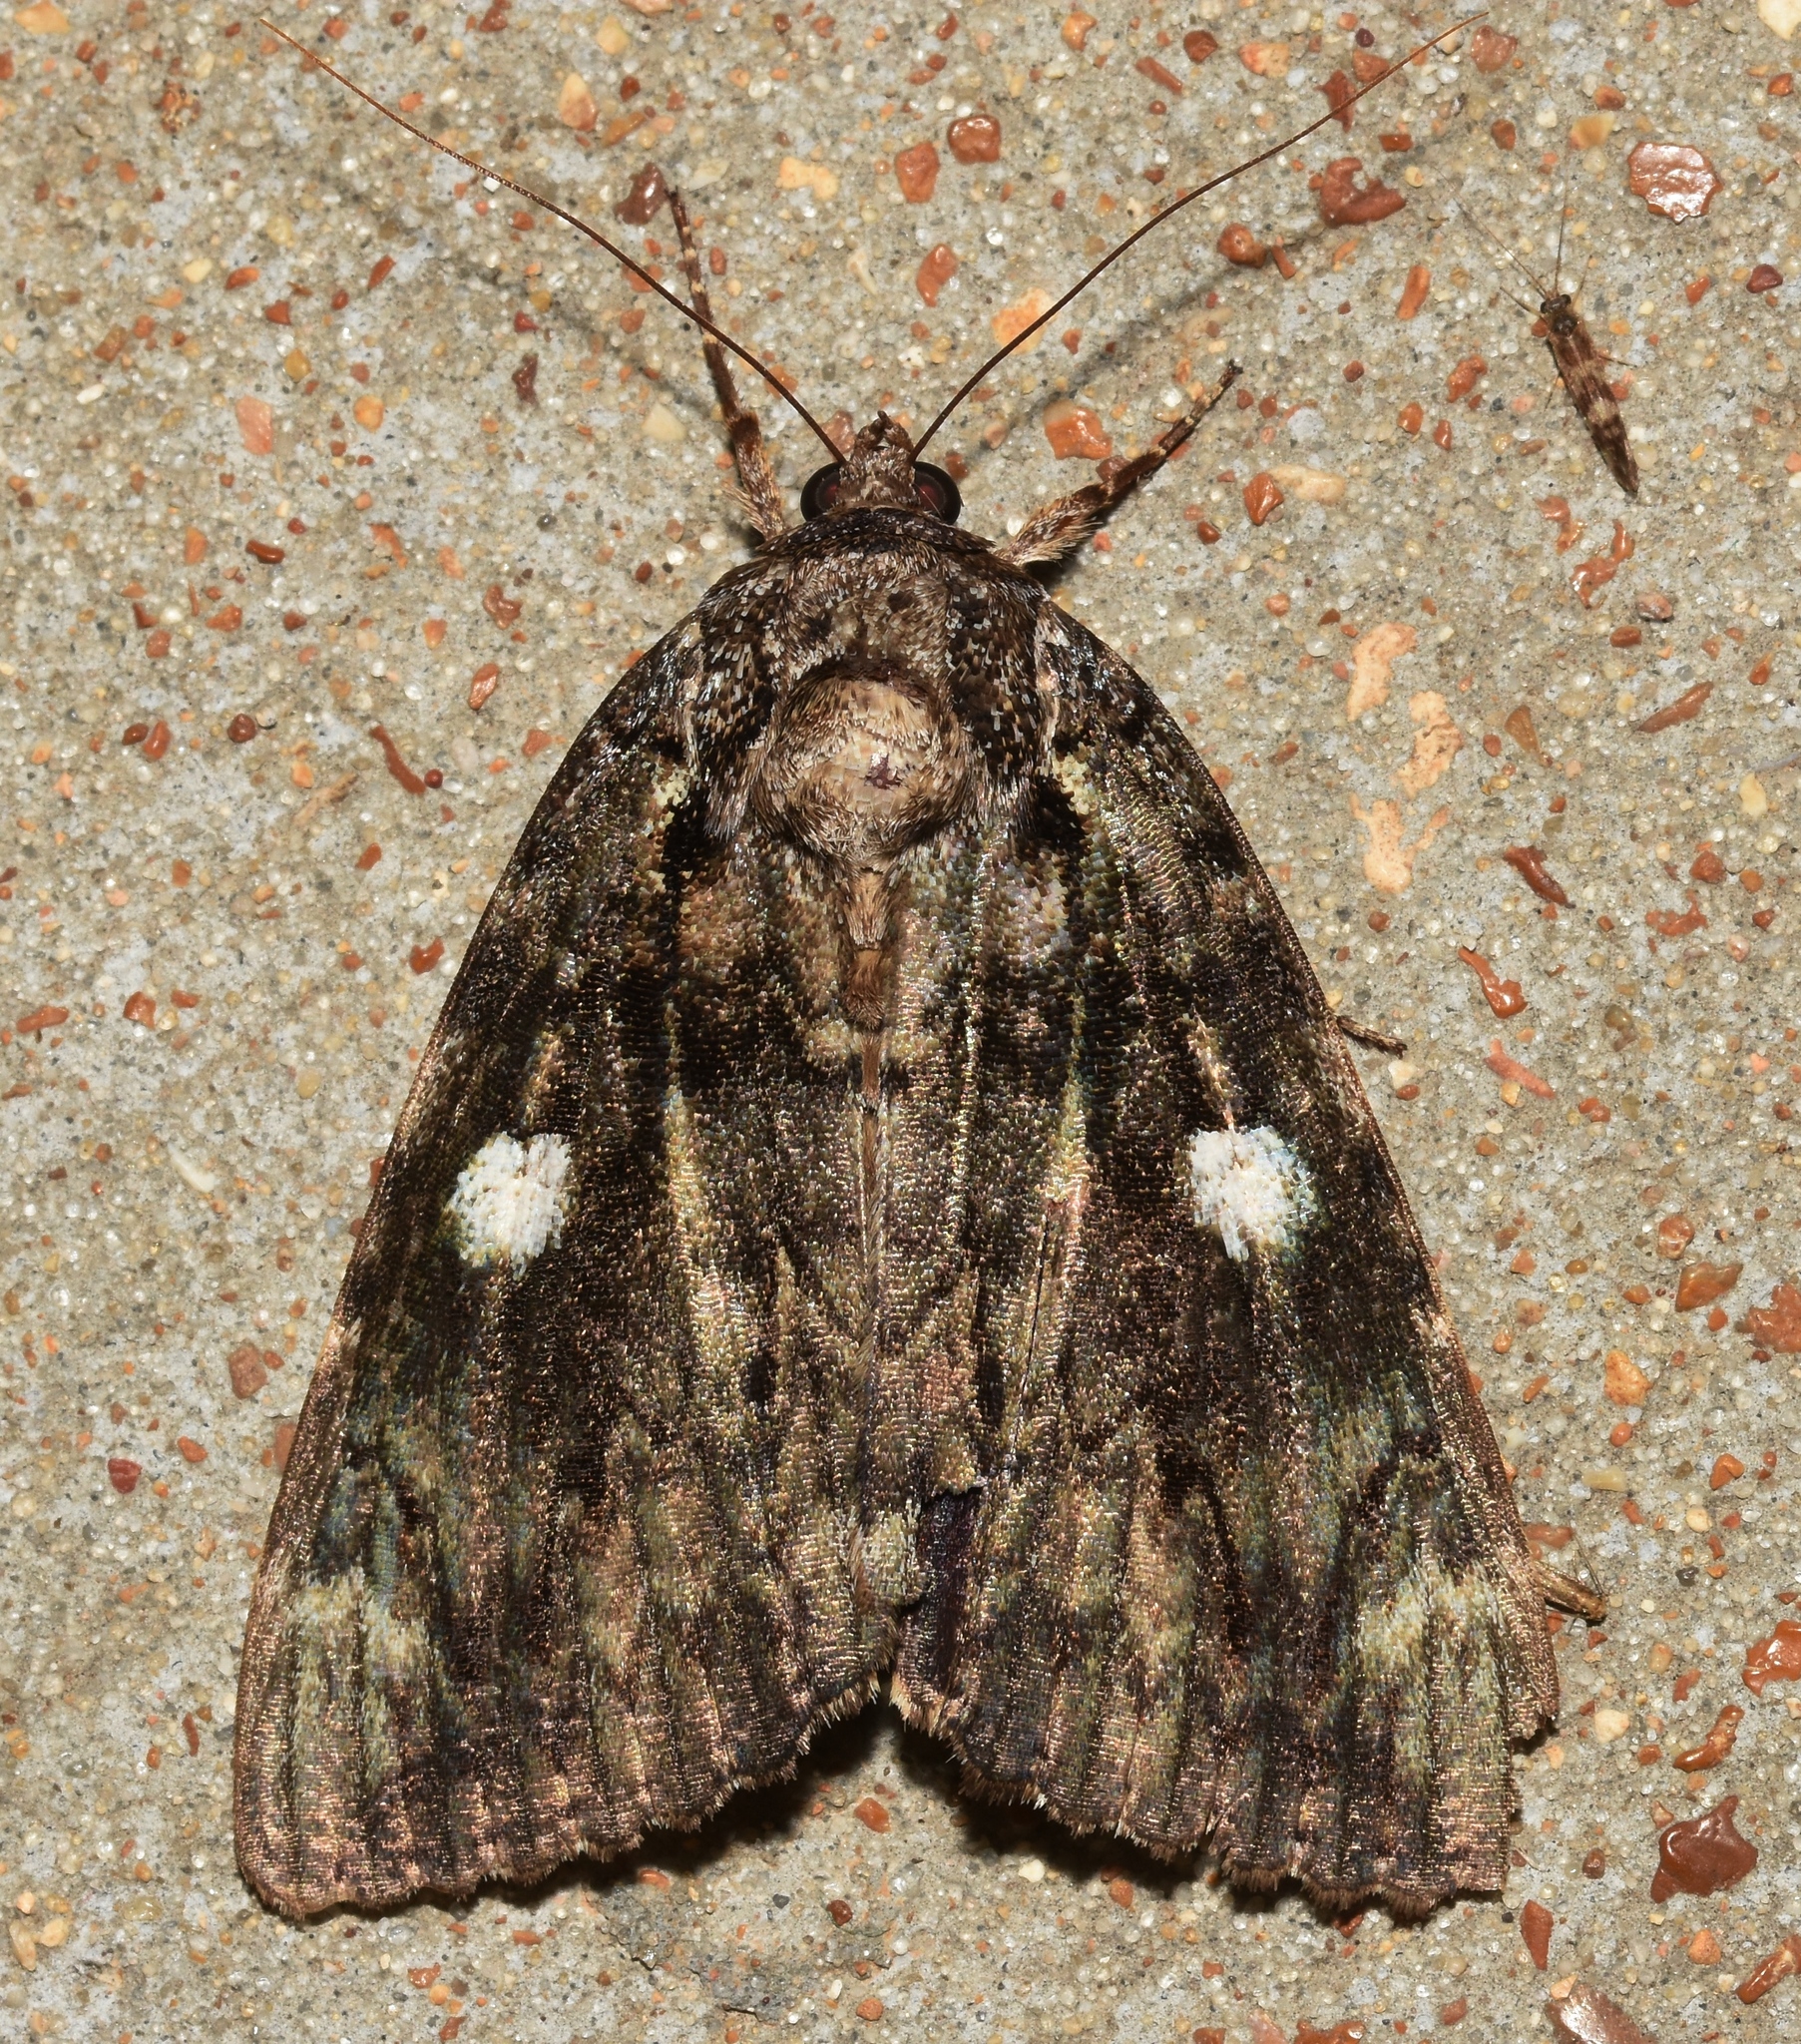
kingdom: Animalia
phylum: Arthropoda
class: Insecta
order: Lepidoptera
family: Erebidae
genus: Catocala
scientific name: Catocala ilia
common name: Ilia underwing
